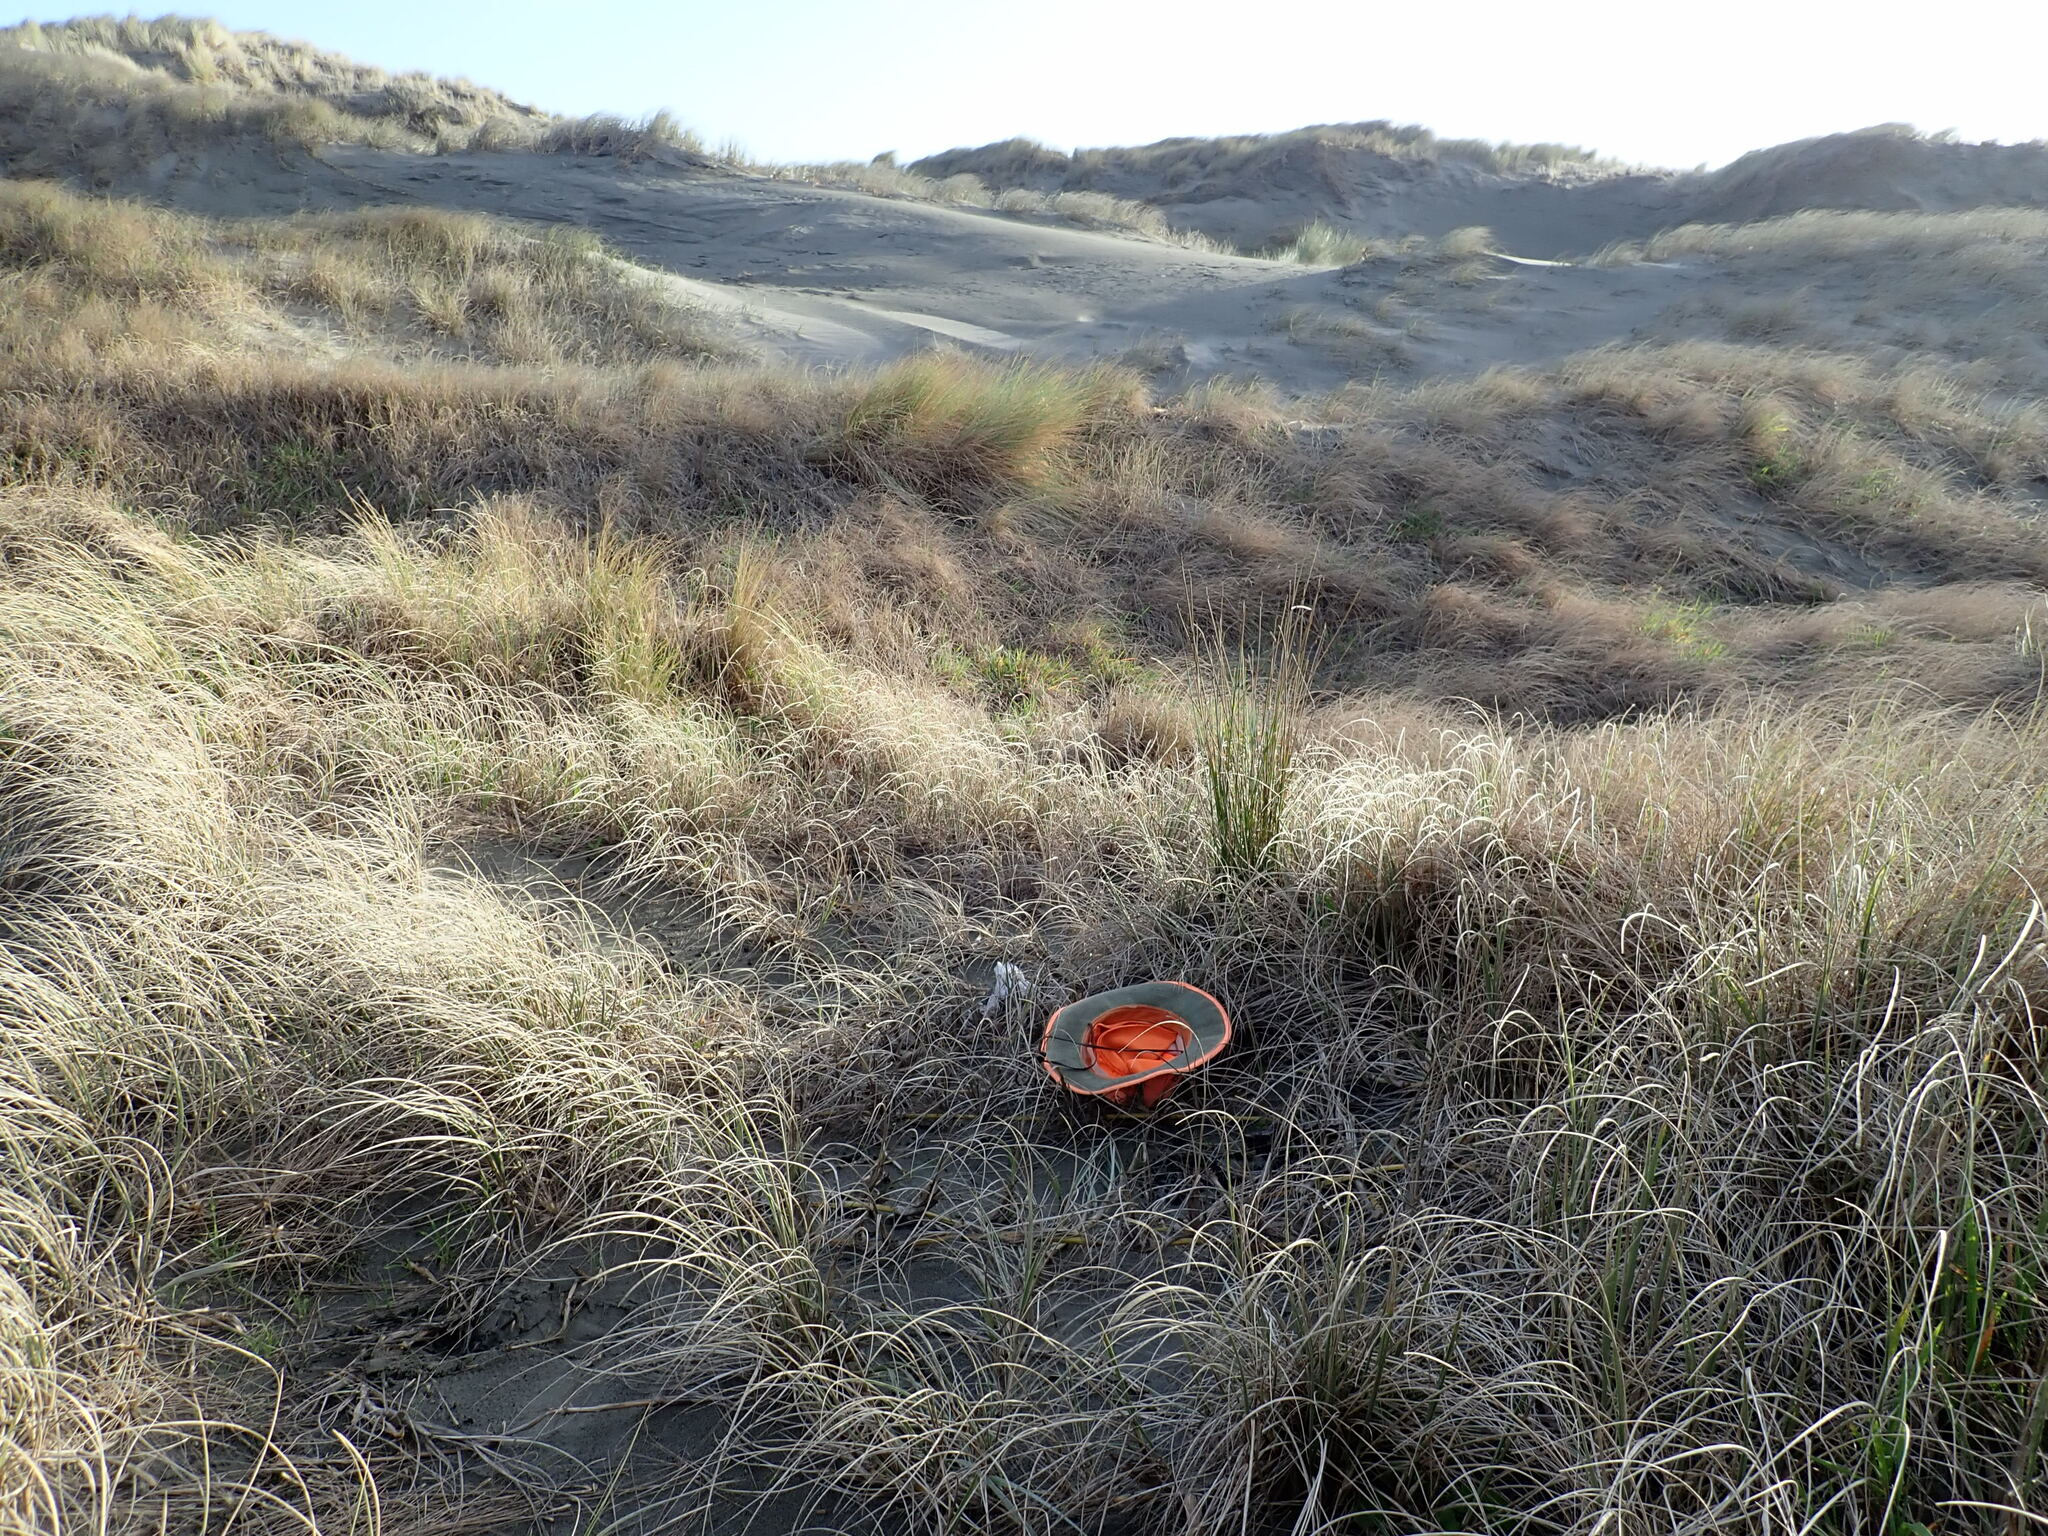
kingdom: Plantae
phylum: Tracheophyta
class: Magnoliopsida
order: Gentianales
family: Rubiaceae
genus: Coprosma
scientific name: Coprosma acerosa
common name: Sand coprosma
